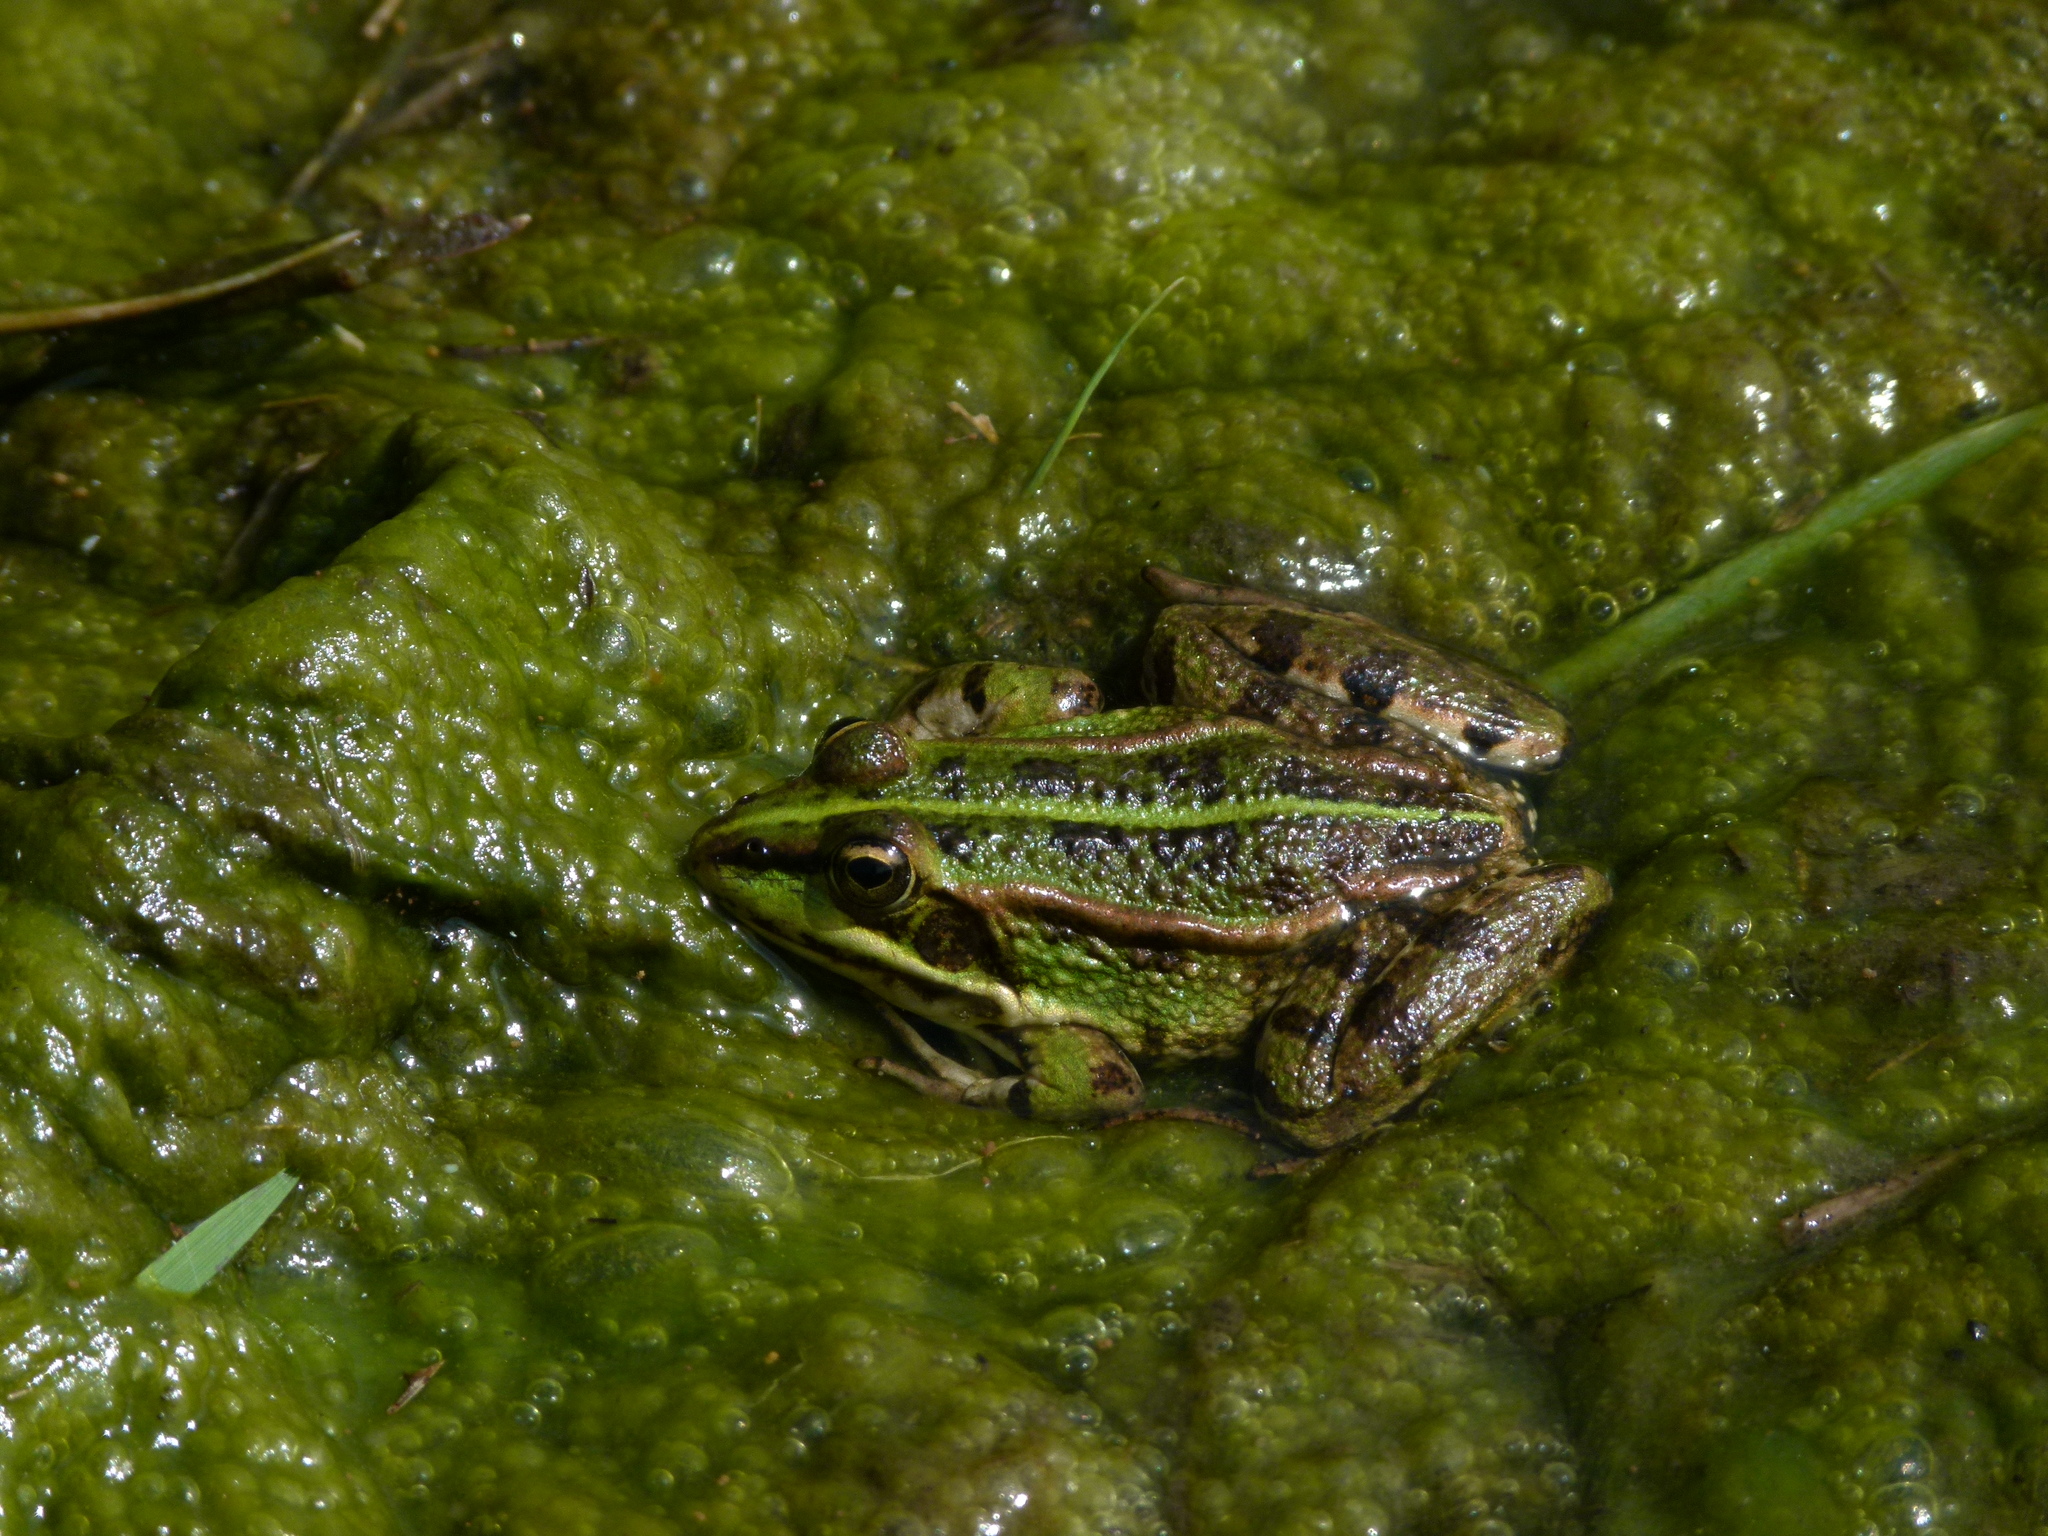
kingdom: Animalia
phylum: Chordata
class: Amphibia
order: Anura
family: Ranidae
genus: Pelophylax
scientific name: Pelophylax perezi
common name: Perez's frog
